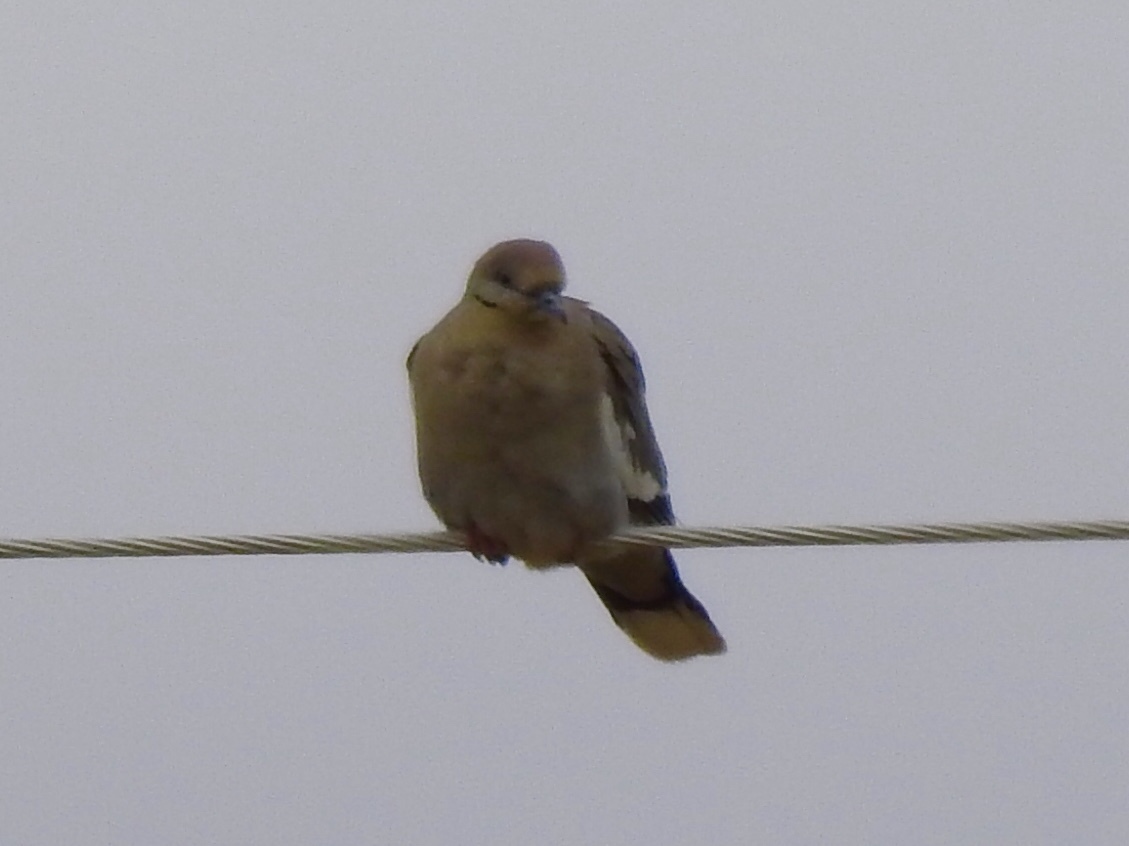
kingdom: Animalia
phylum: Chordata
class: Aves
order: Columbiformes
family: Columbidae
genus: Zenaida
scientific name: Zenaida asiatica
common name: White-winged dove
